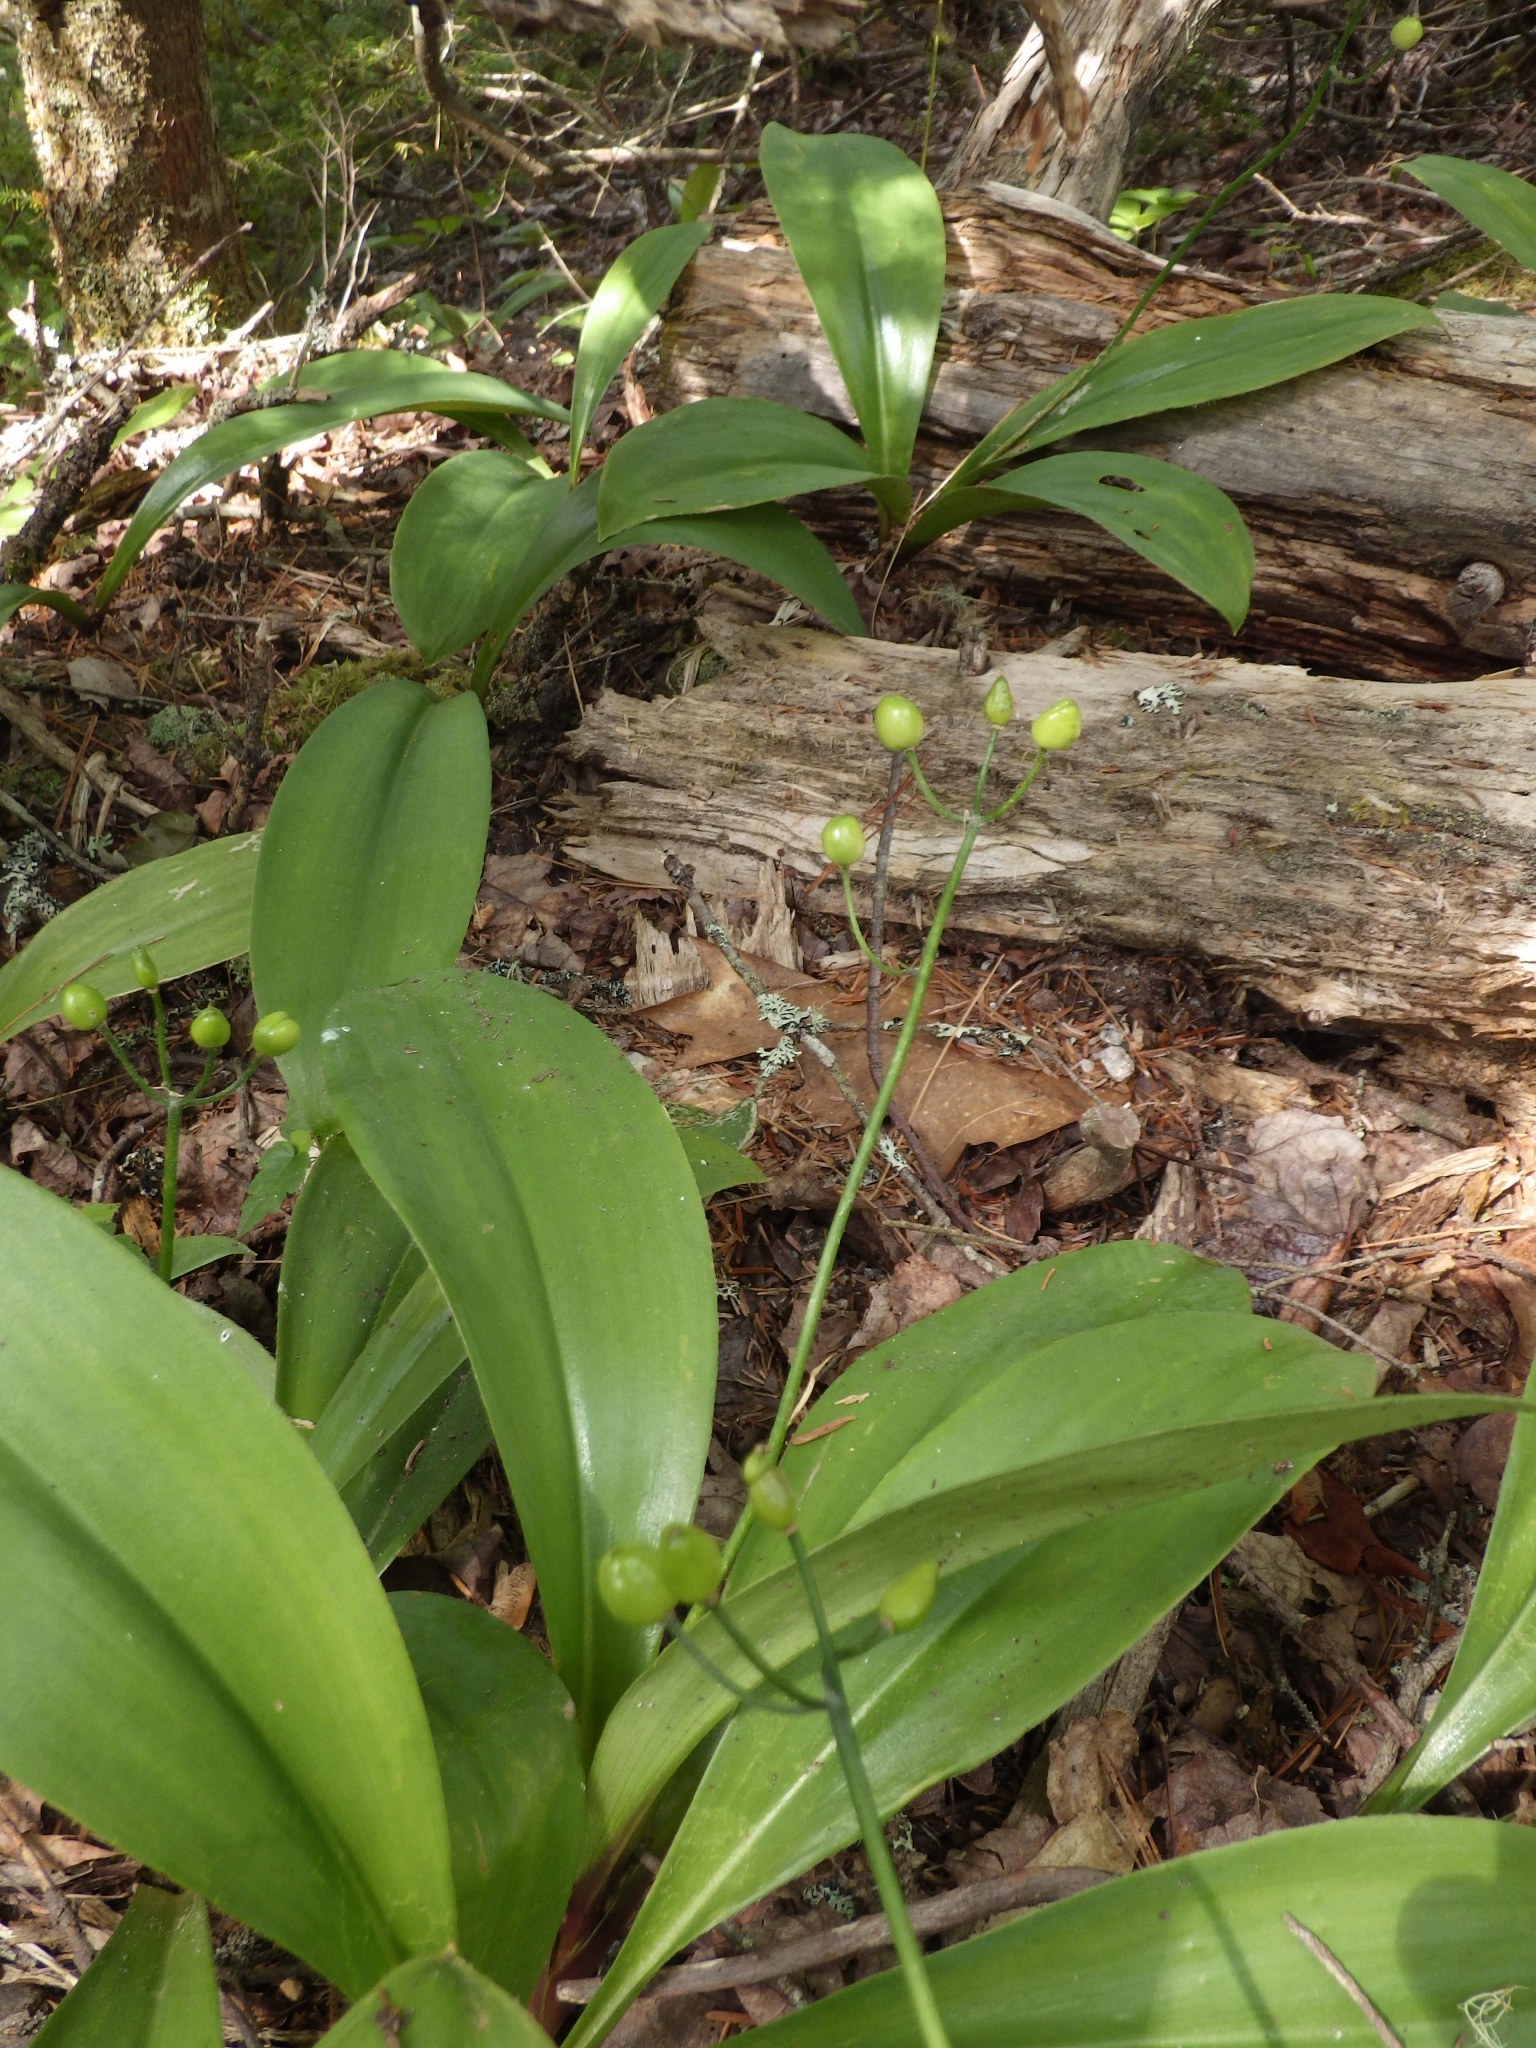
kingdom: Plantae
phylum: Tracheophyta
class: Liliopsida
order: Liliales
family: Liliaceae
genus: Clintonia
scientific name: Clintonia borealis
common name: Yellow clintonia
